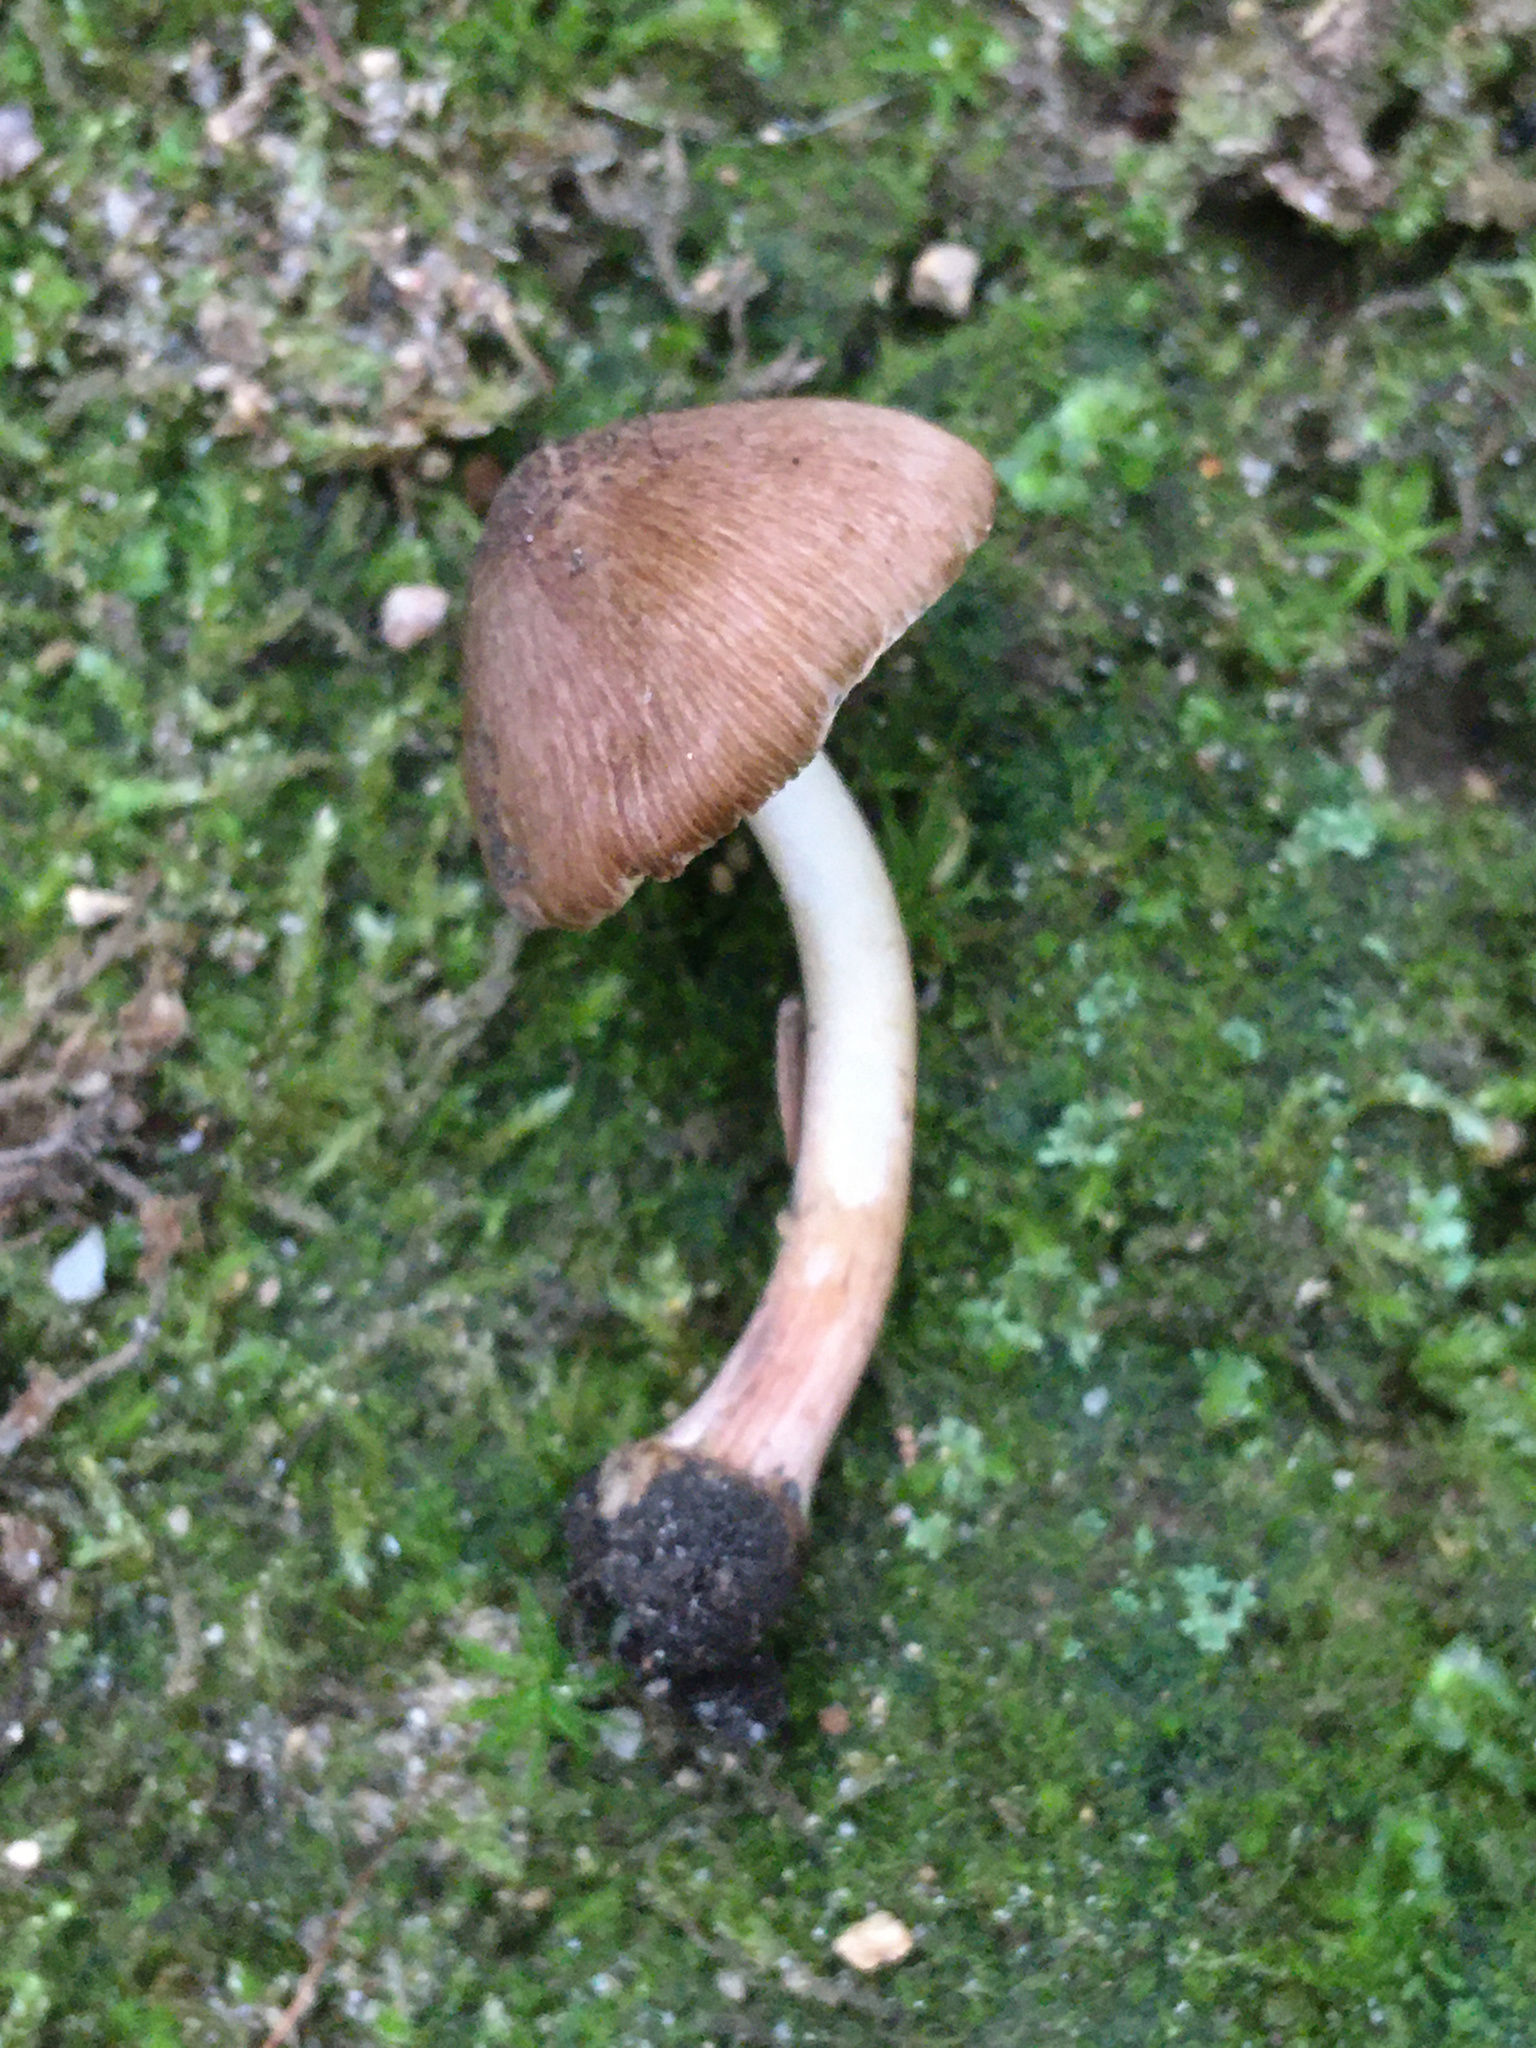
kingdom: Fungi
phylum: Basidiomycota
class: Agaricomycetes
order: Agaricales
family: Inocybaceae
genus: Inocybe
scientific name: Inocybe digitula
